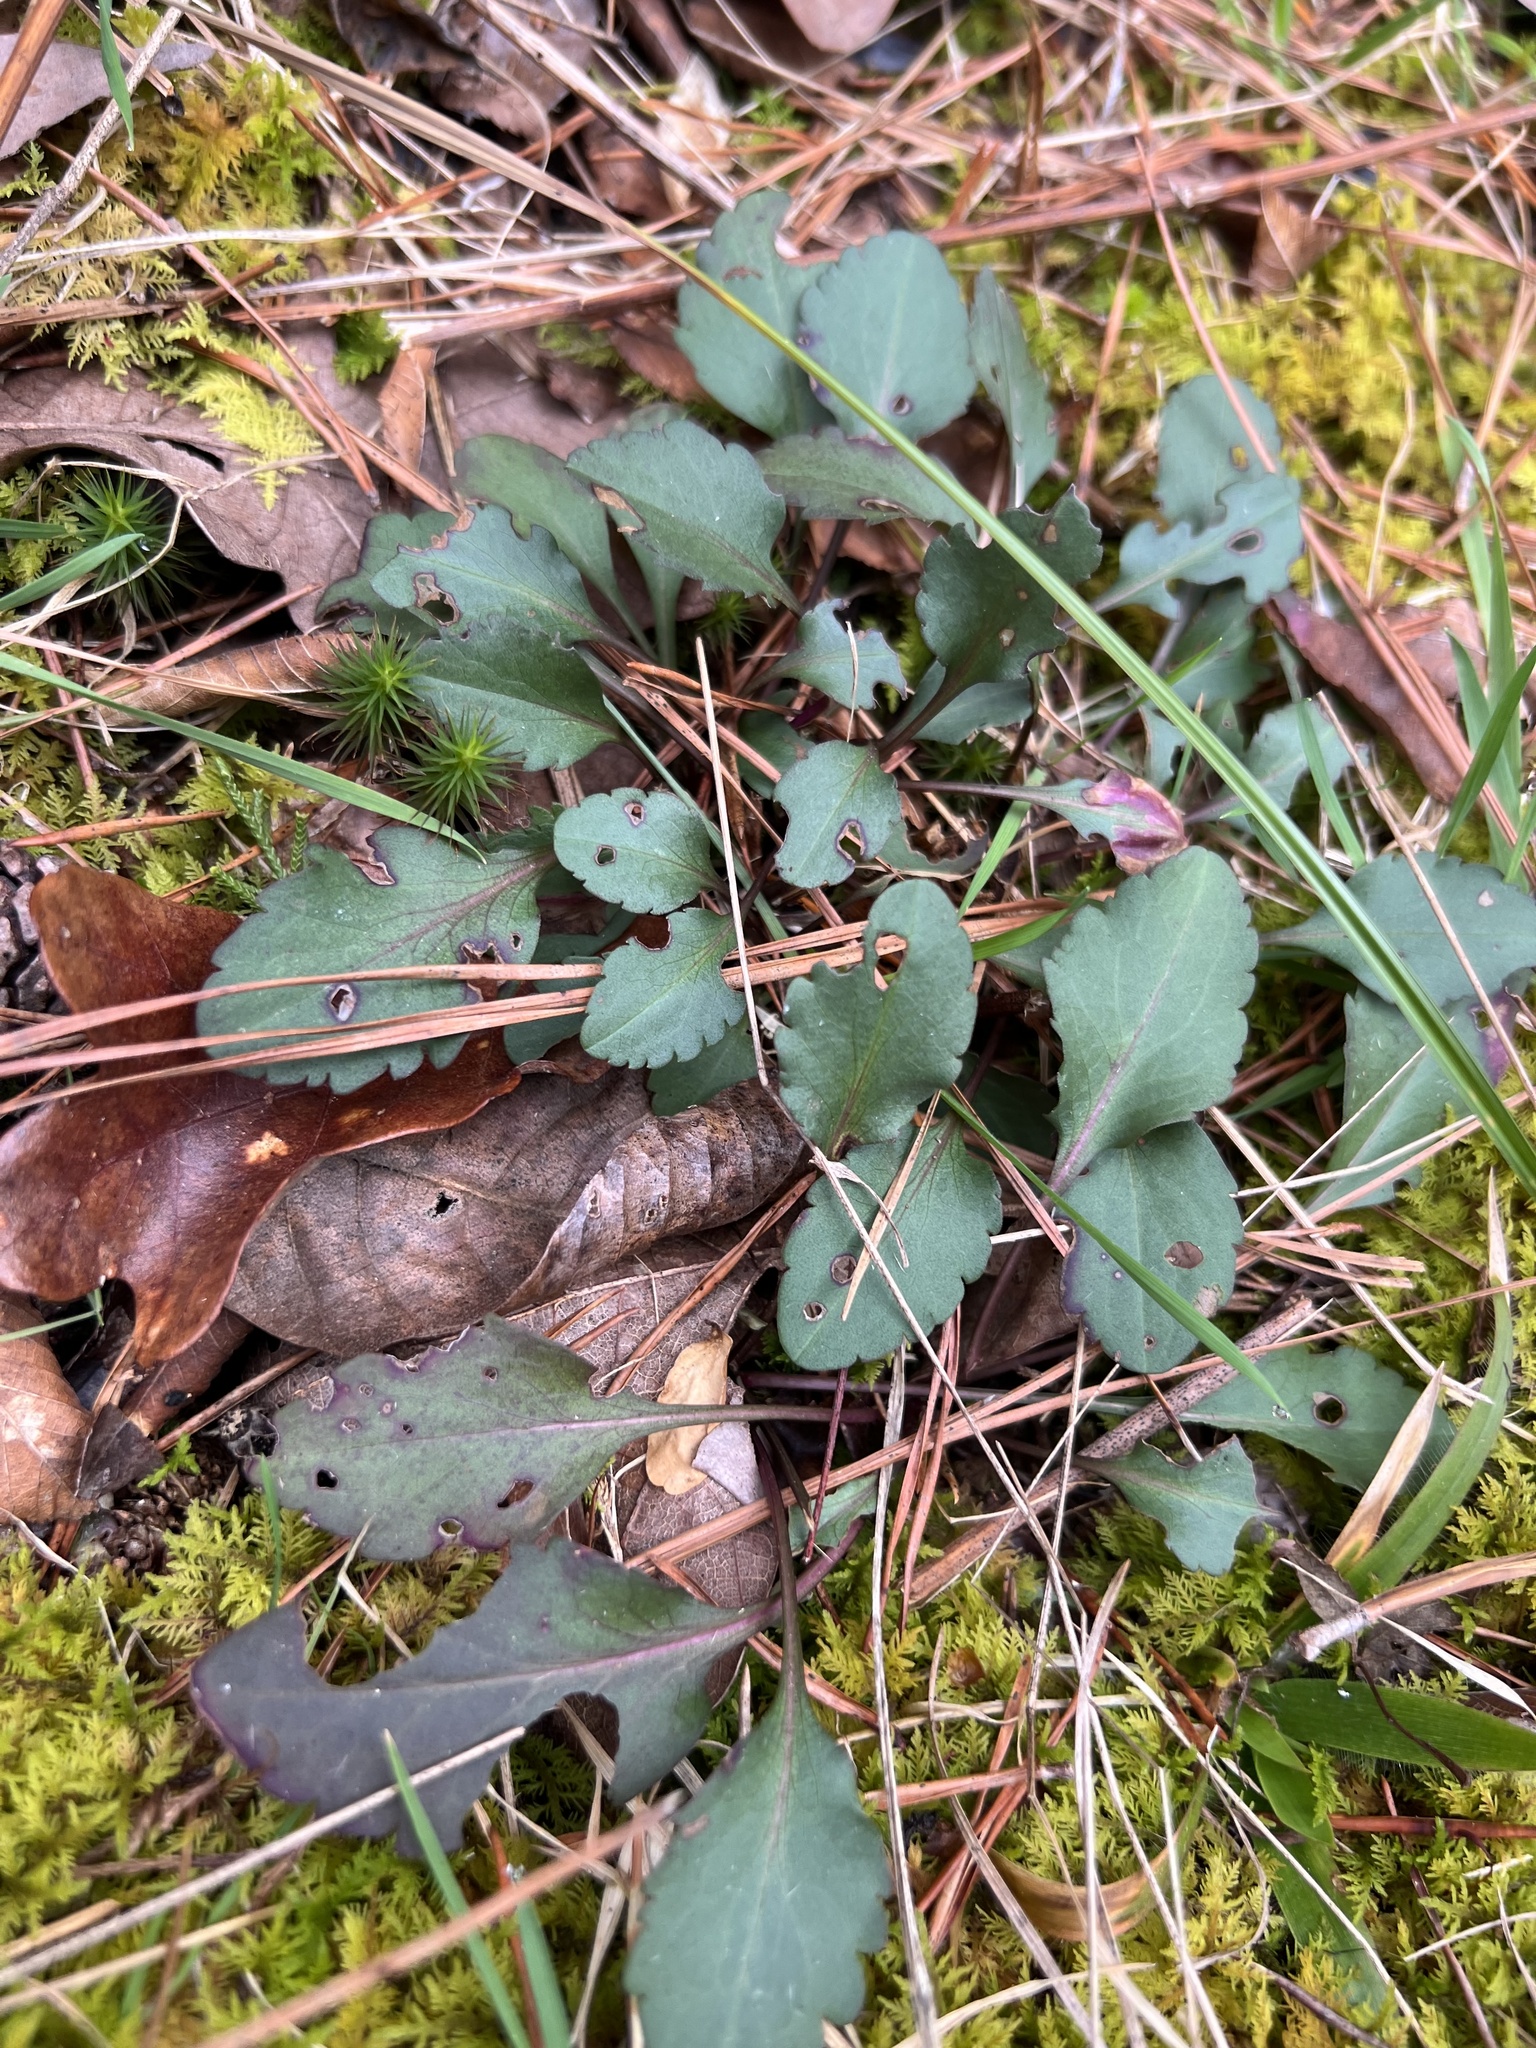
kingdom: Plantae
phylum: Tracheophyta
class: Magnoliopsida
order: Asterales
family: Asteraceae
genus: Chrysogonum
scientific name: Chrysogonum virginianum
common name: Golden-knee
